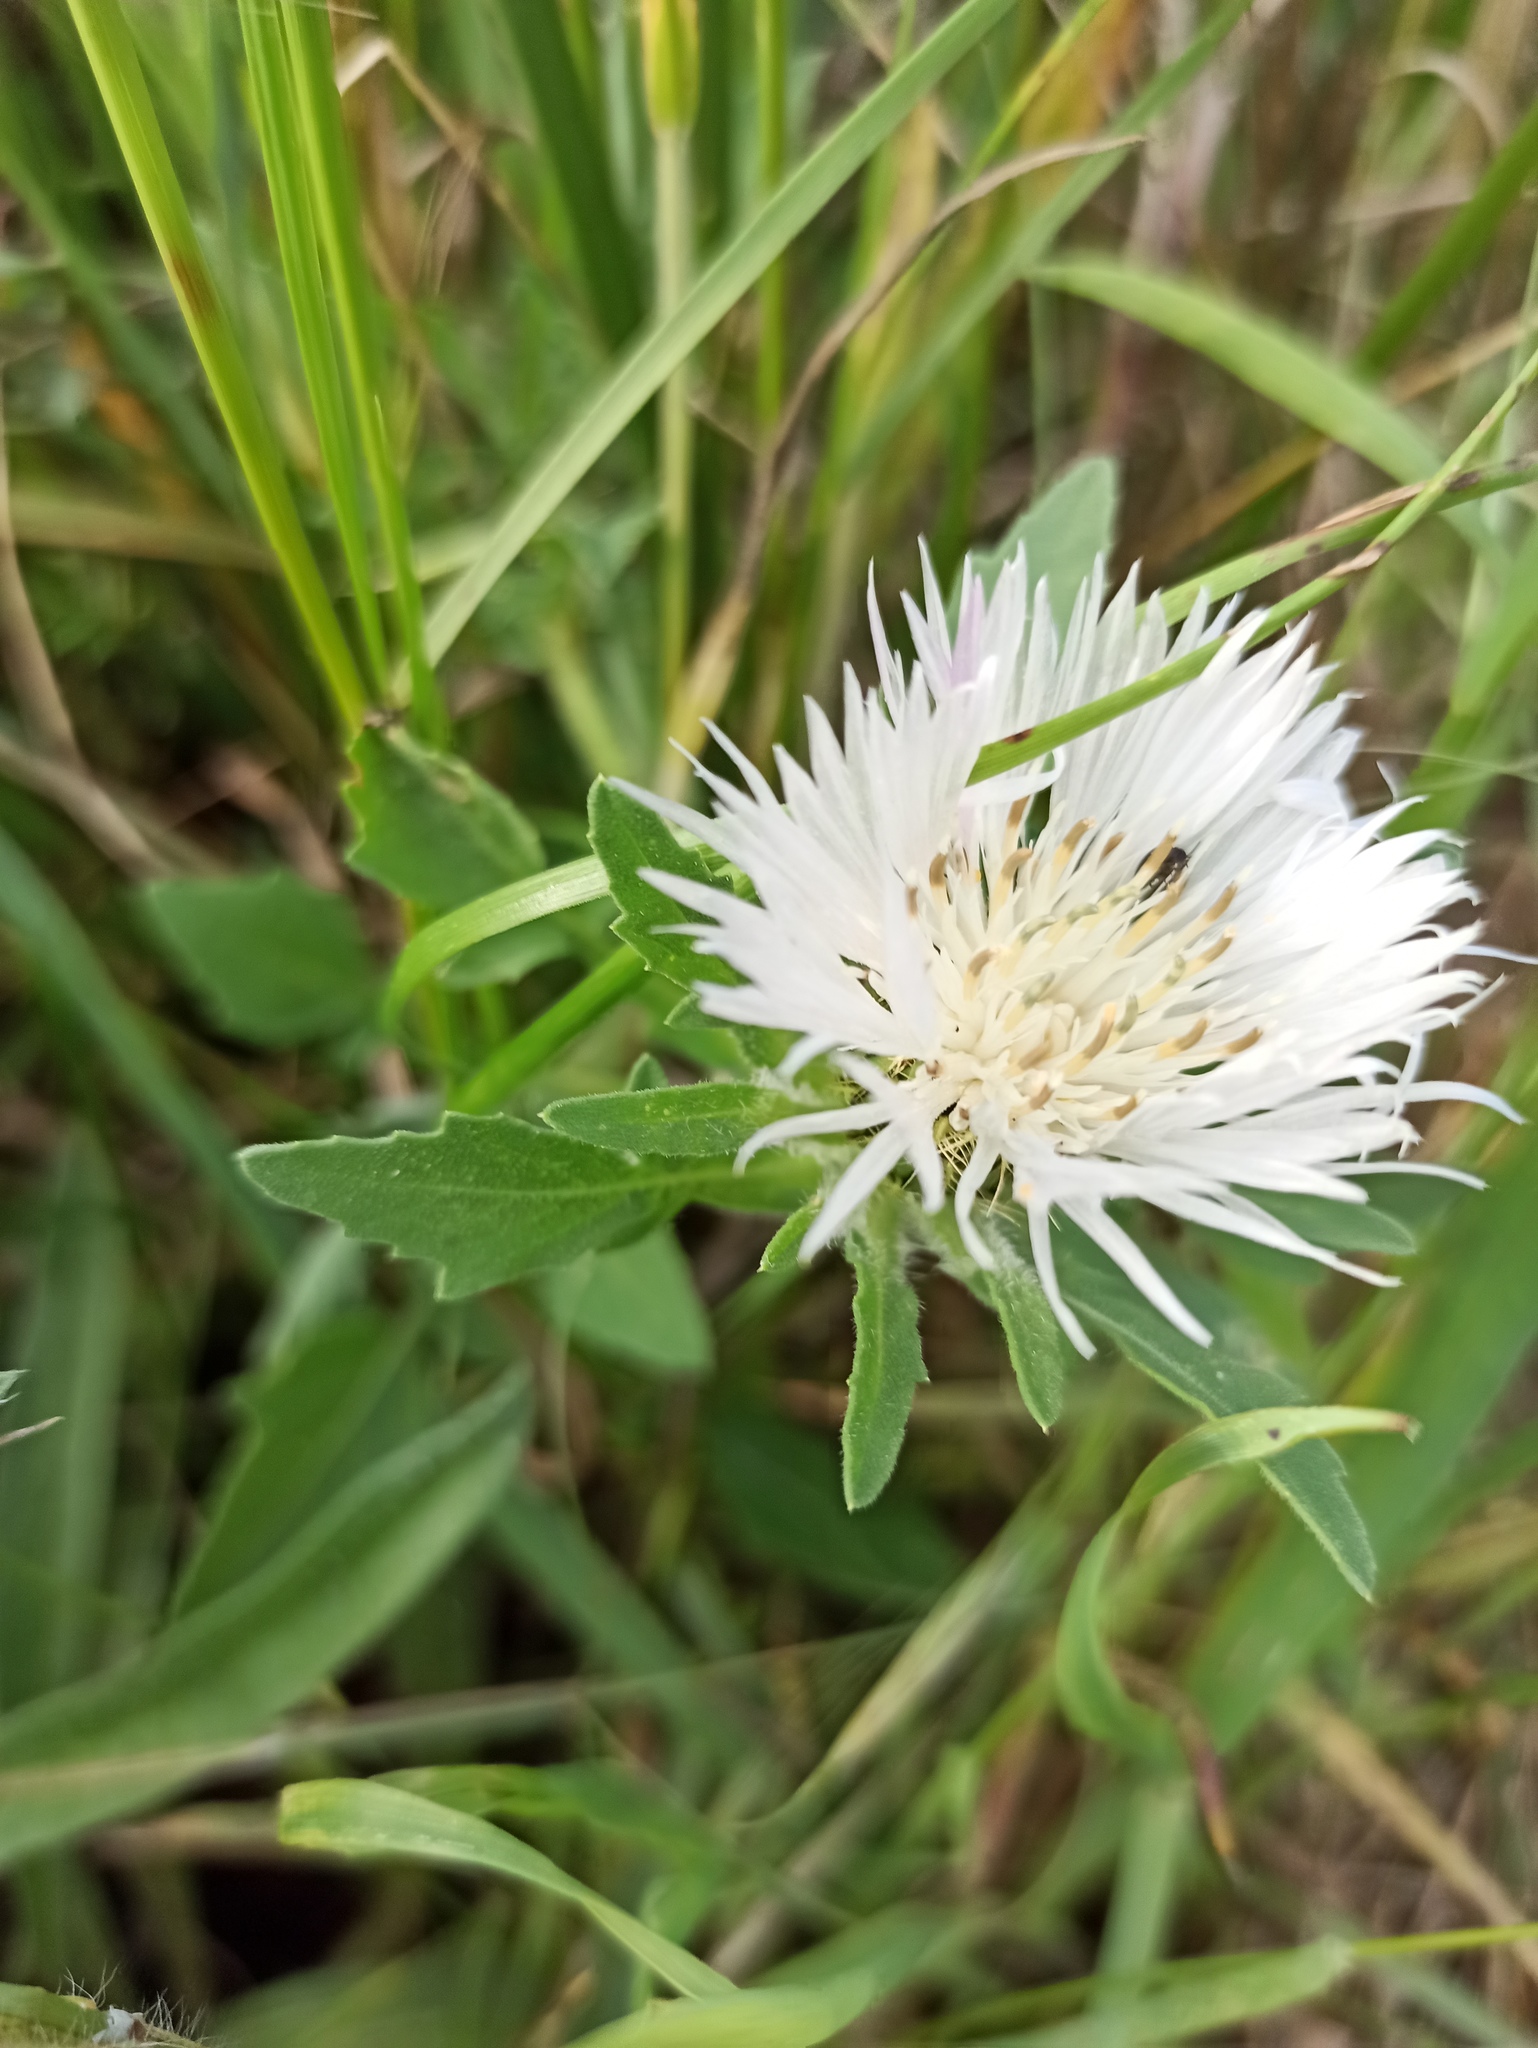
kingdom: Plantae
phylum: Tracheophyta
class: Magnoliopsida
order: Asterales
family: Asteraceae
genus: Centaurea
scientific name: Centaurea pullata
